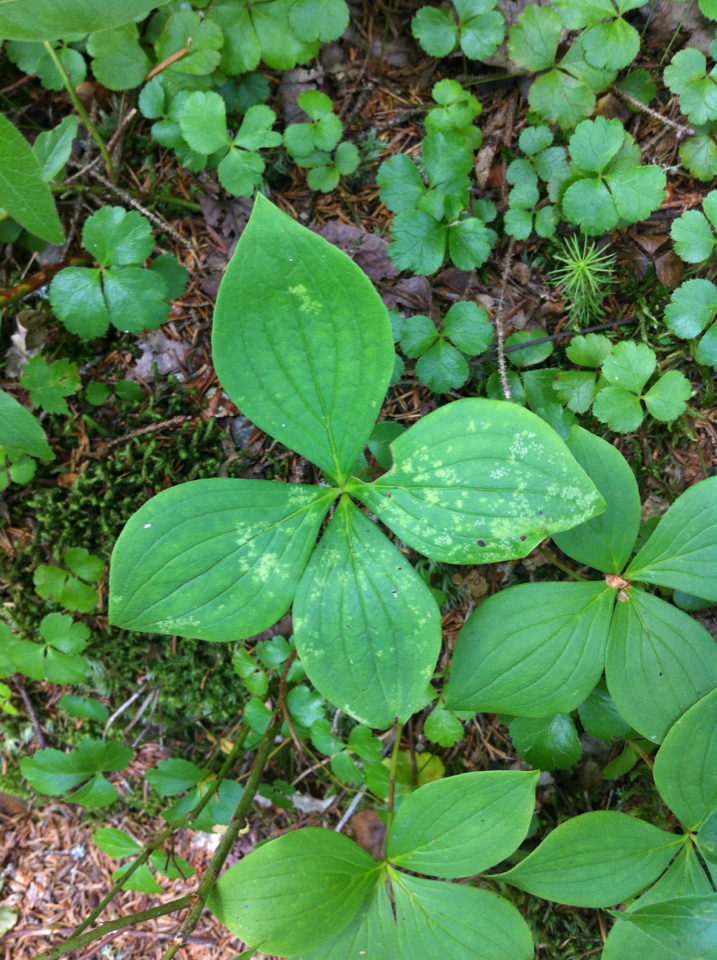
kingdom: Plantae
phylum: Tracheophyta
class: Magnoliopsida
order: Cornales
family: Cornaceae
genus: Cornus
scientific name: Cornus canadensis
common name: Creeping dogwood
